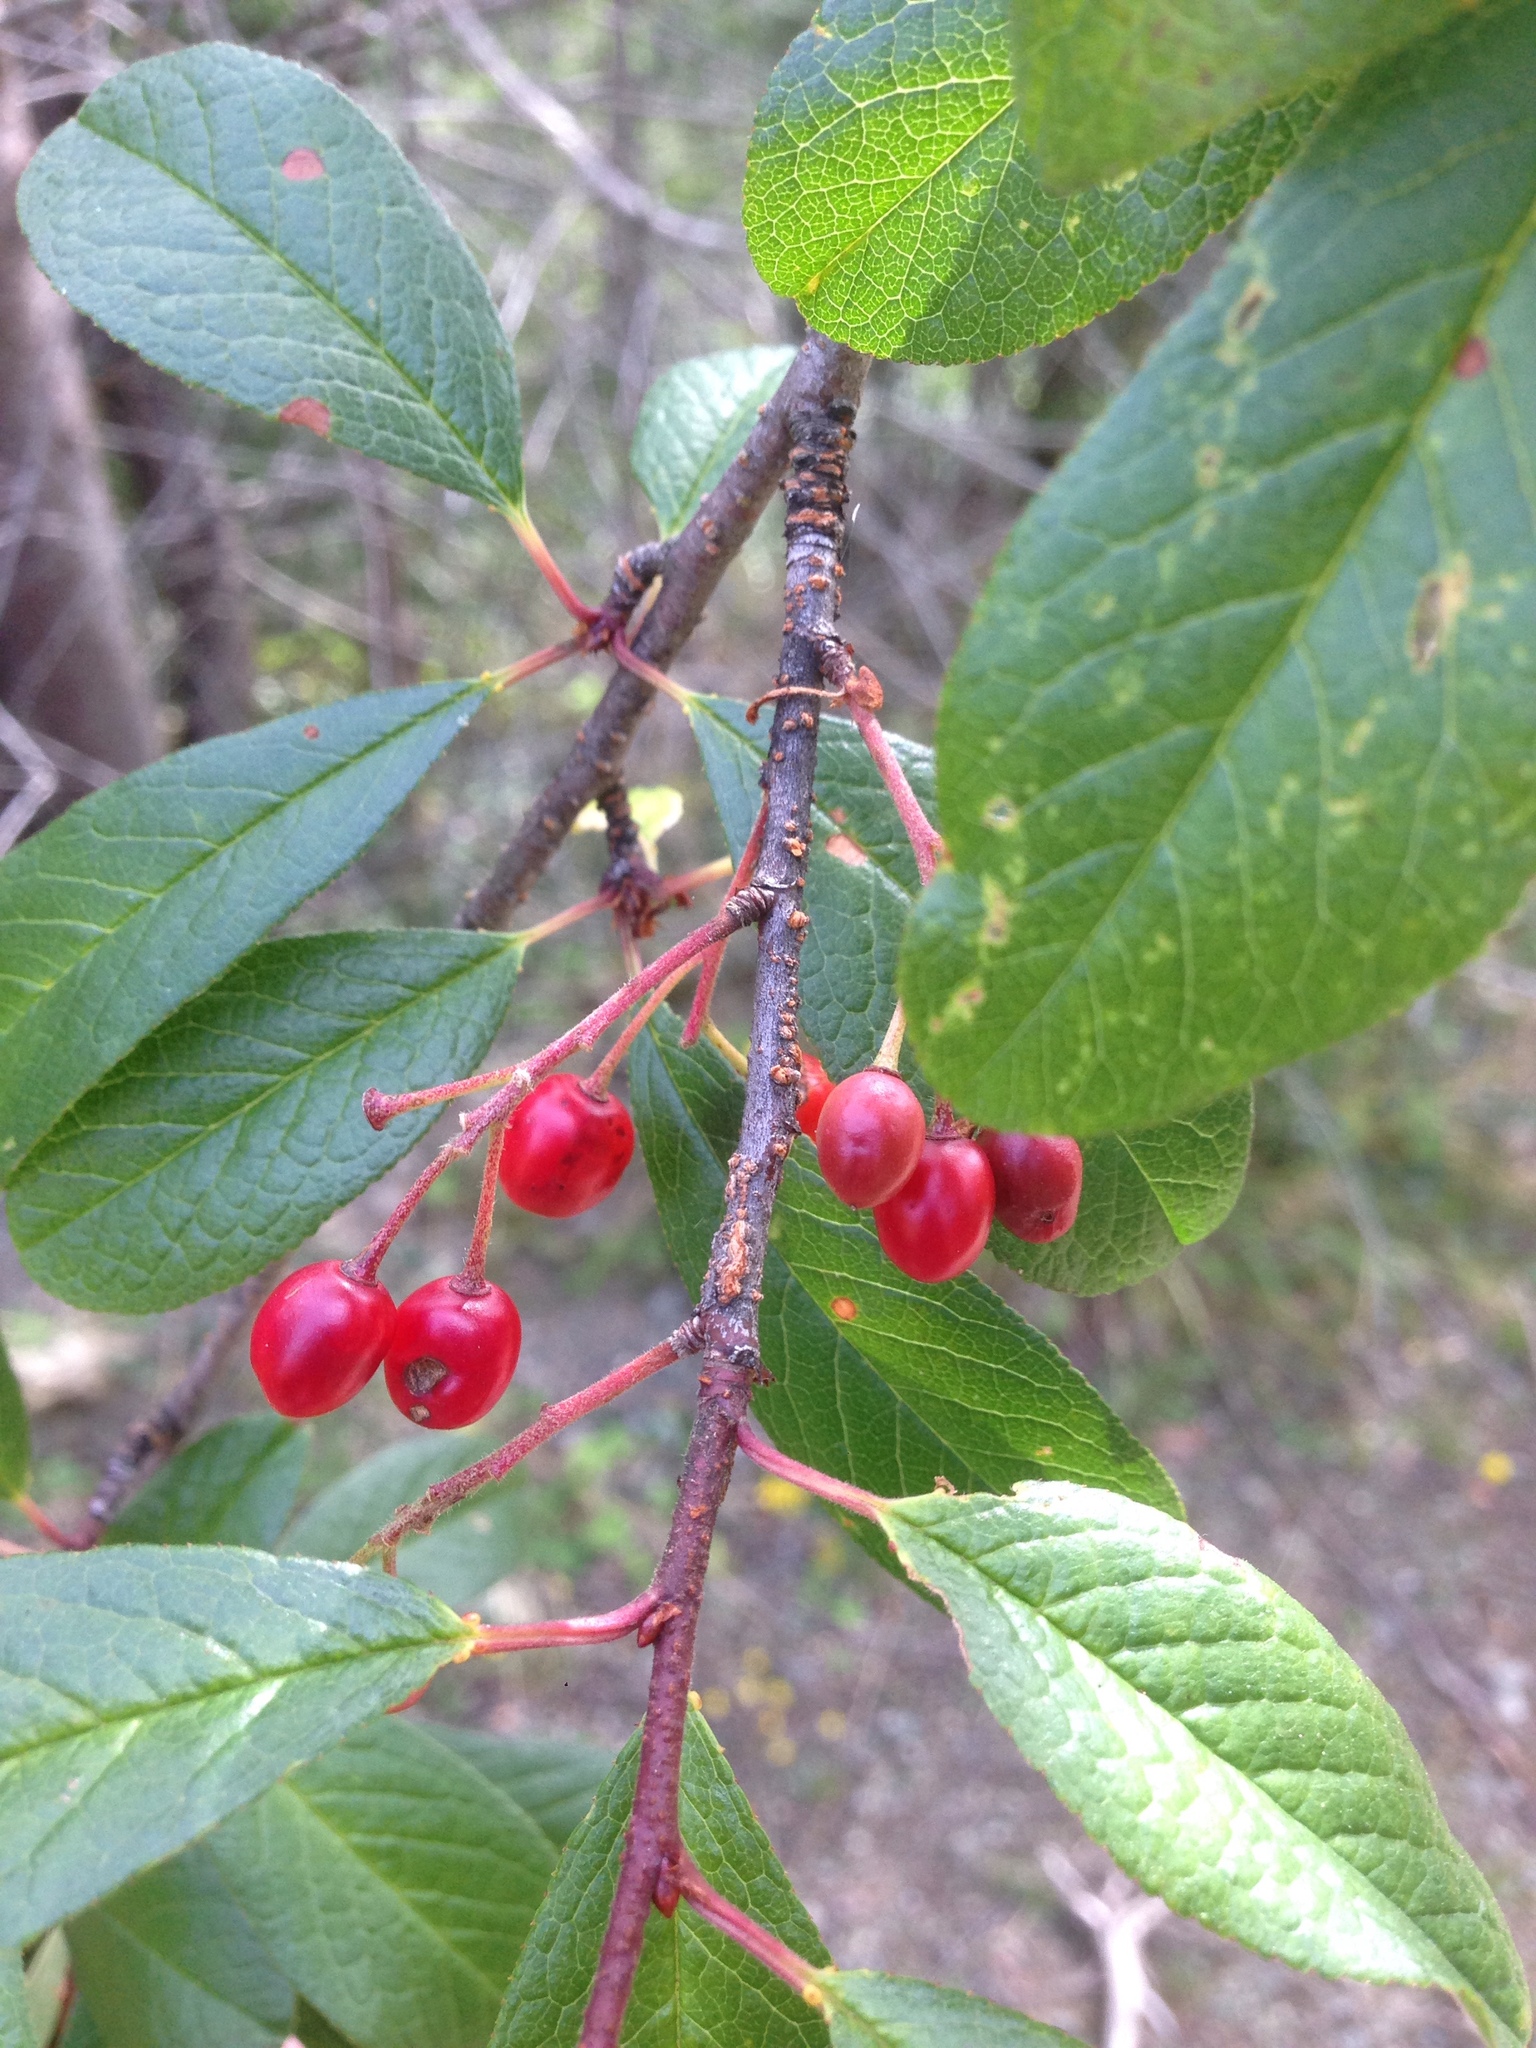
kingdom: Plantae
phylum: Tracheophyta
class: Magnoliopsida
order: Rosales
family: Rosaceae
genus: Prunus
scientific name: Prunus emarginata
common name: Bitter cherry
